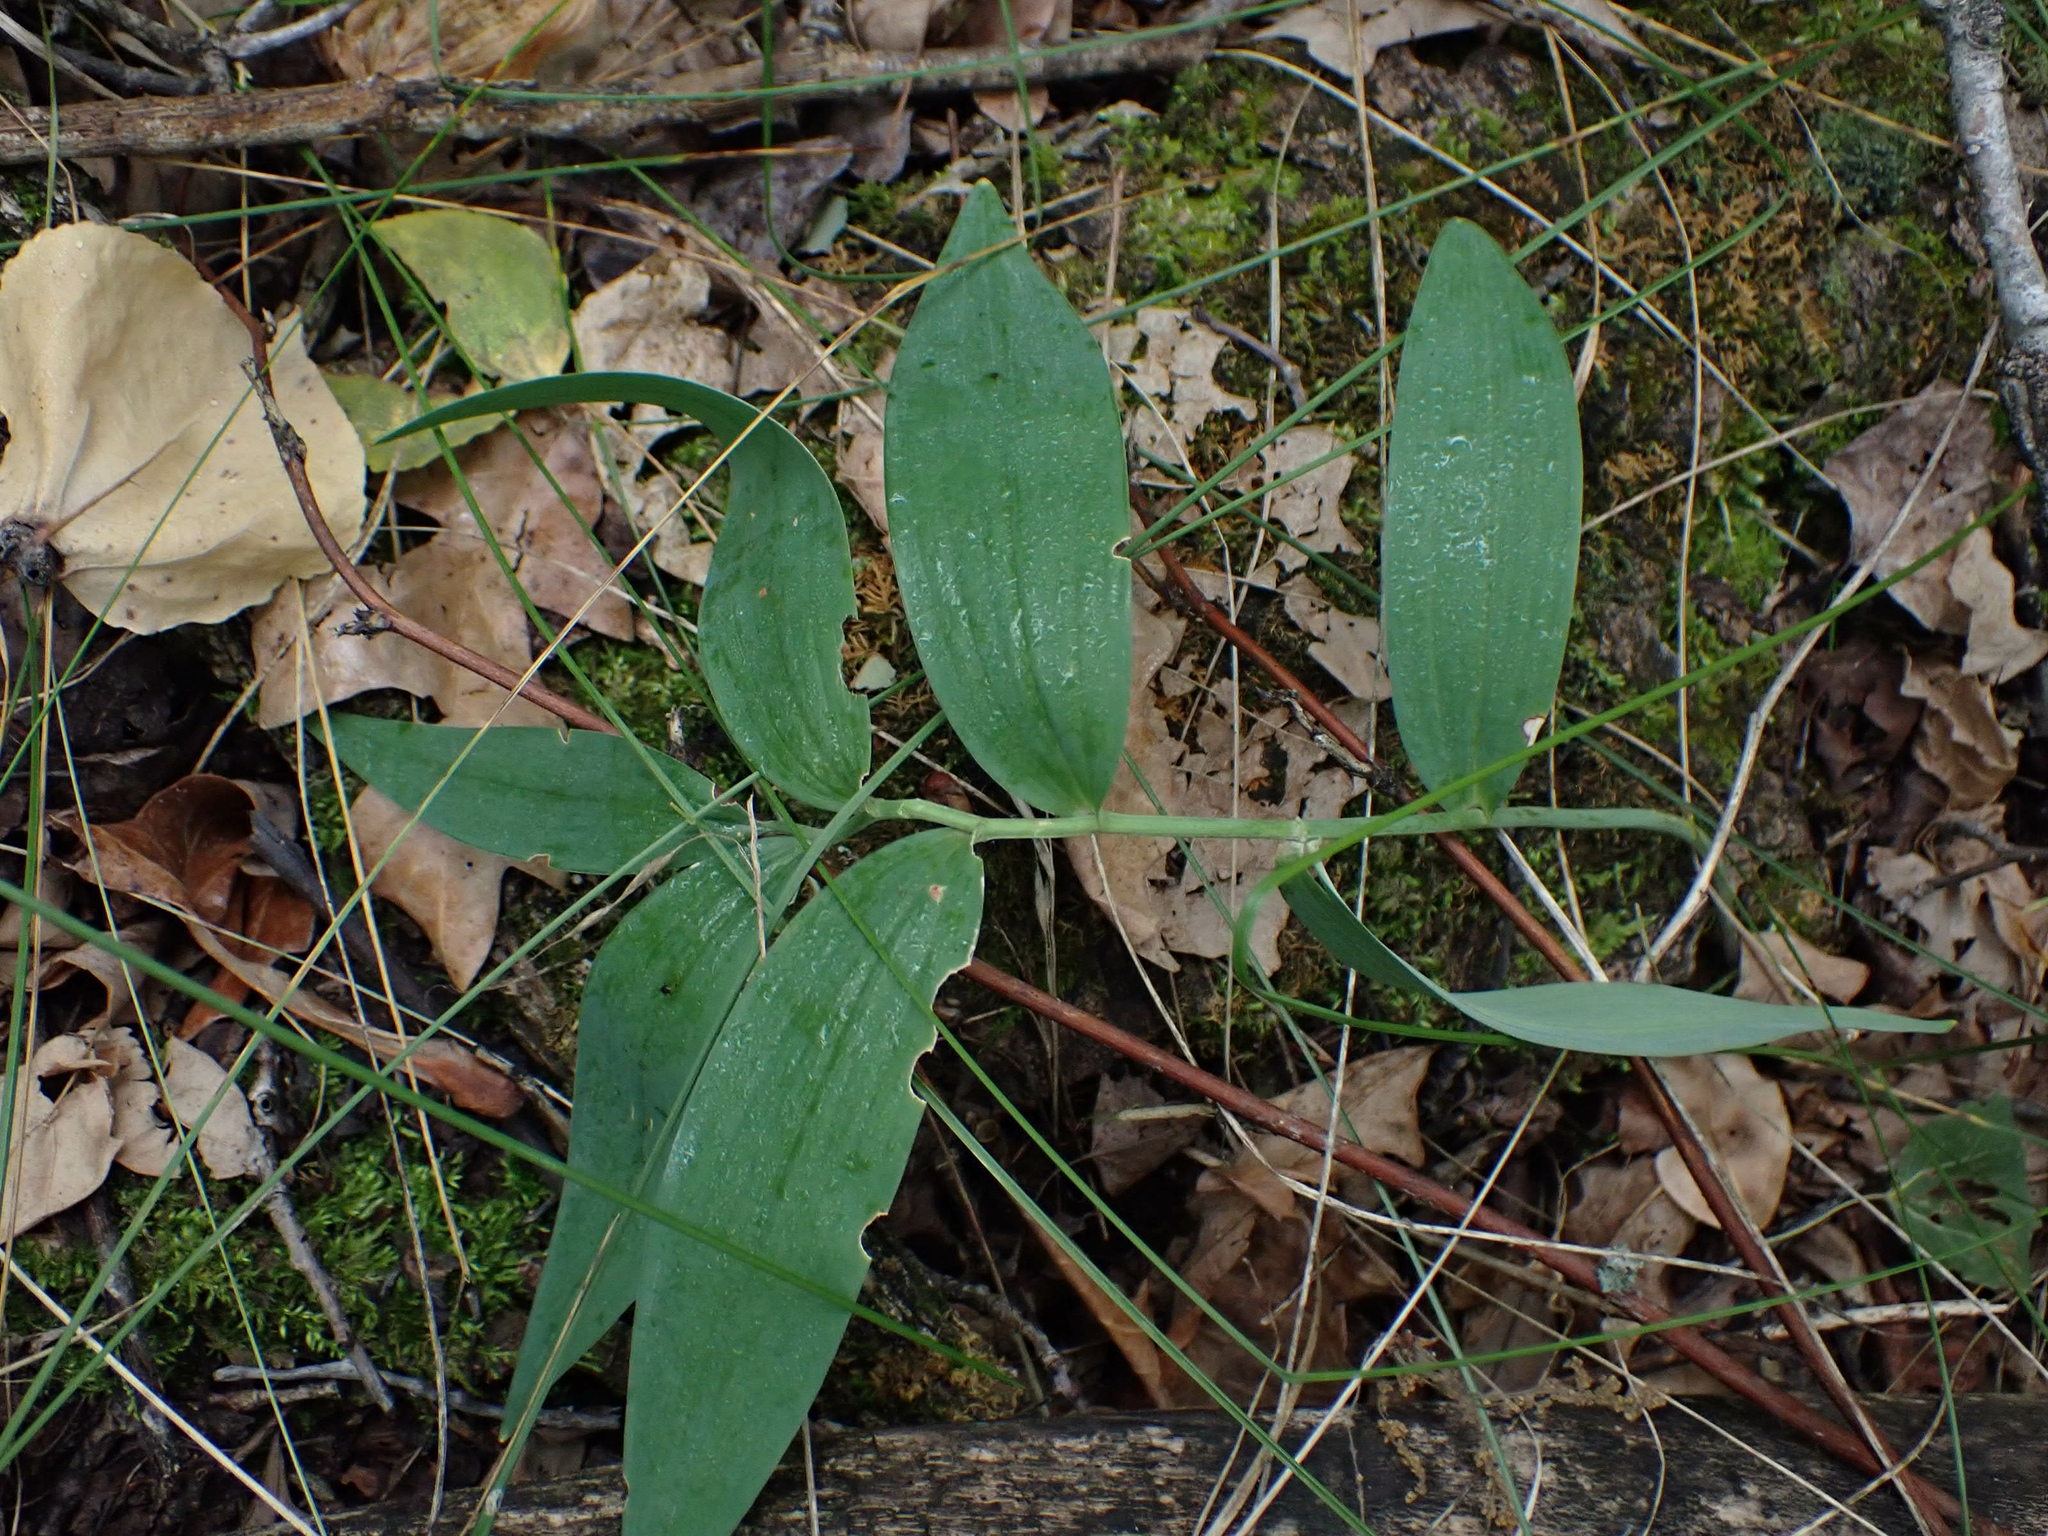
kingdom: Plantae
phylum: Tracheophyta
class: Liliopsida
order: Asparagales
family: Asparagaceae
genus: Maianthemum
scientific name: Maianthemum stellatum
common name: Little false solomon's seal
